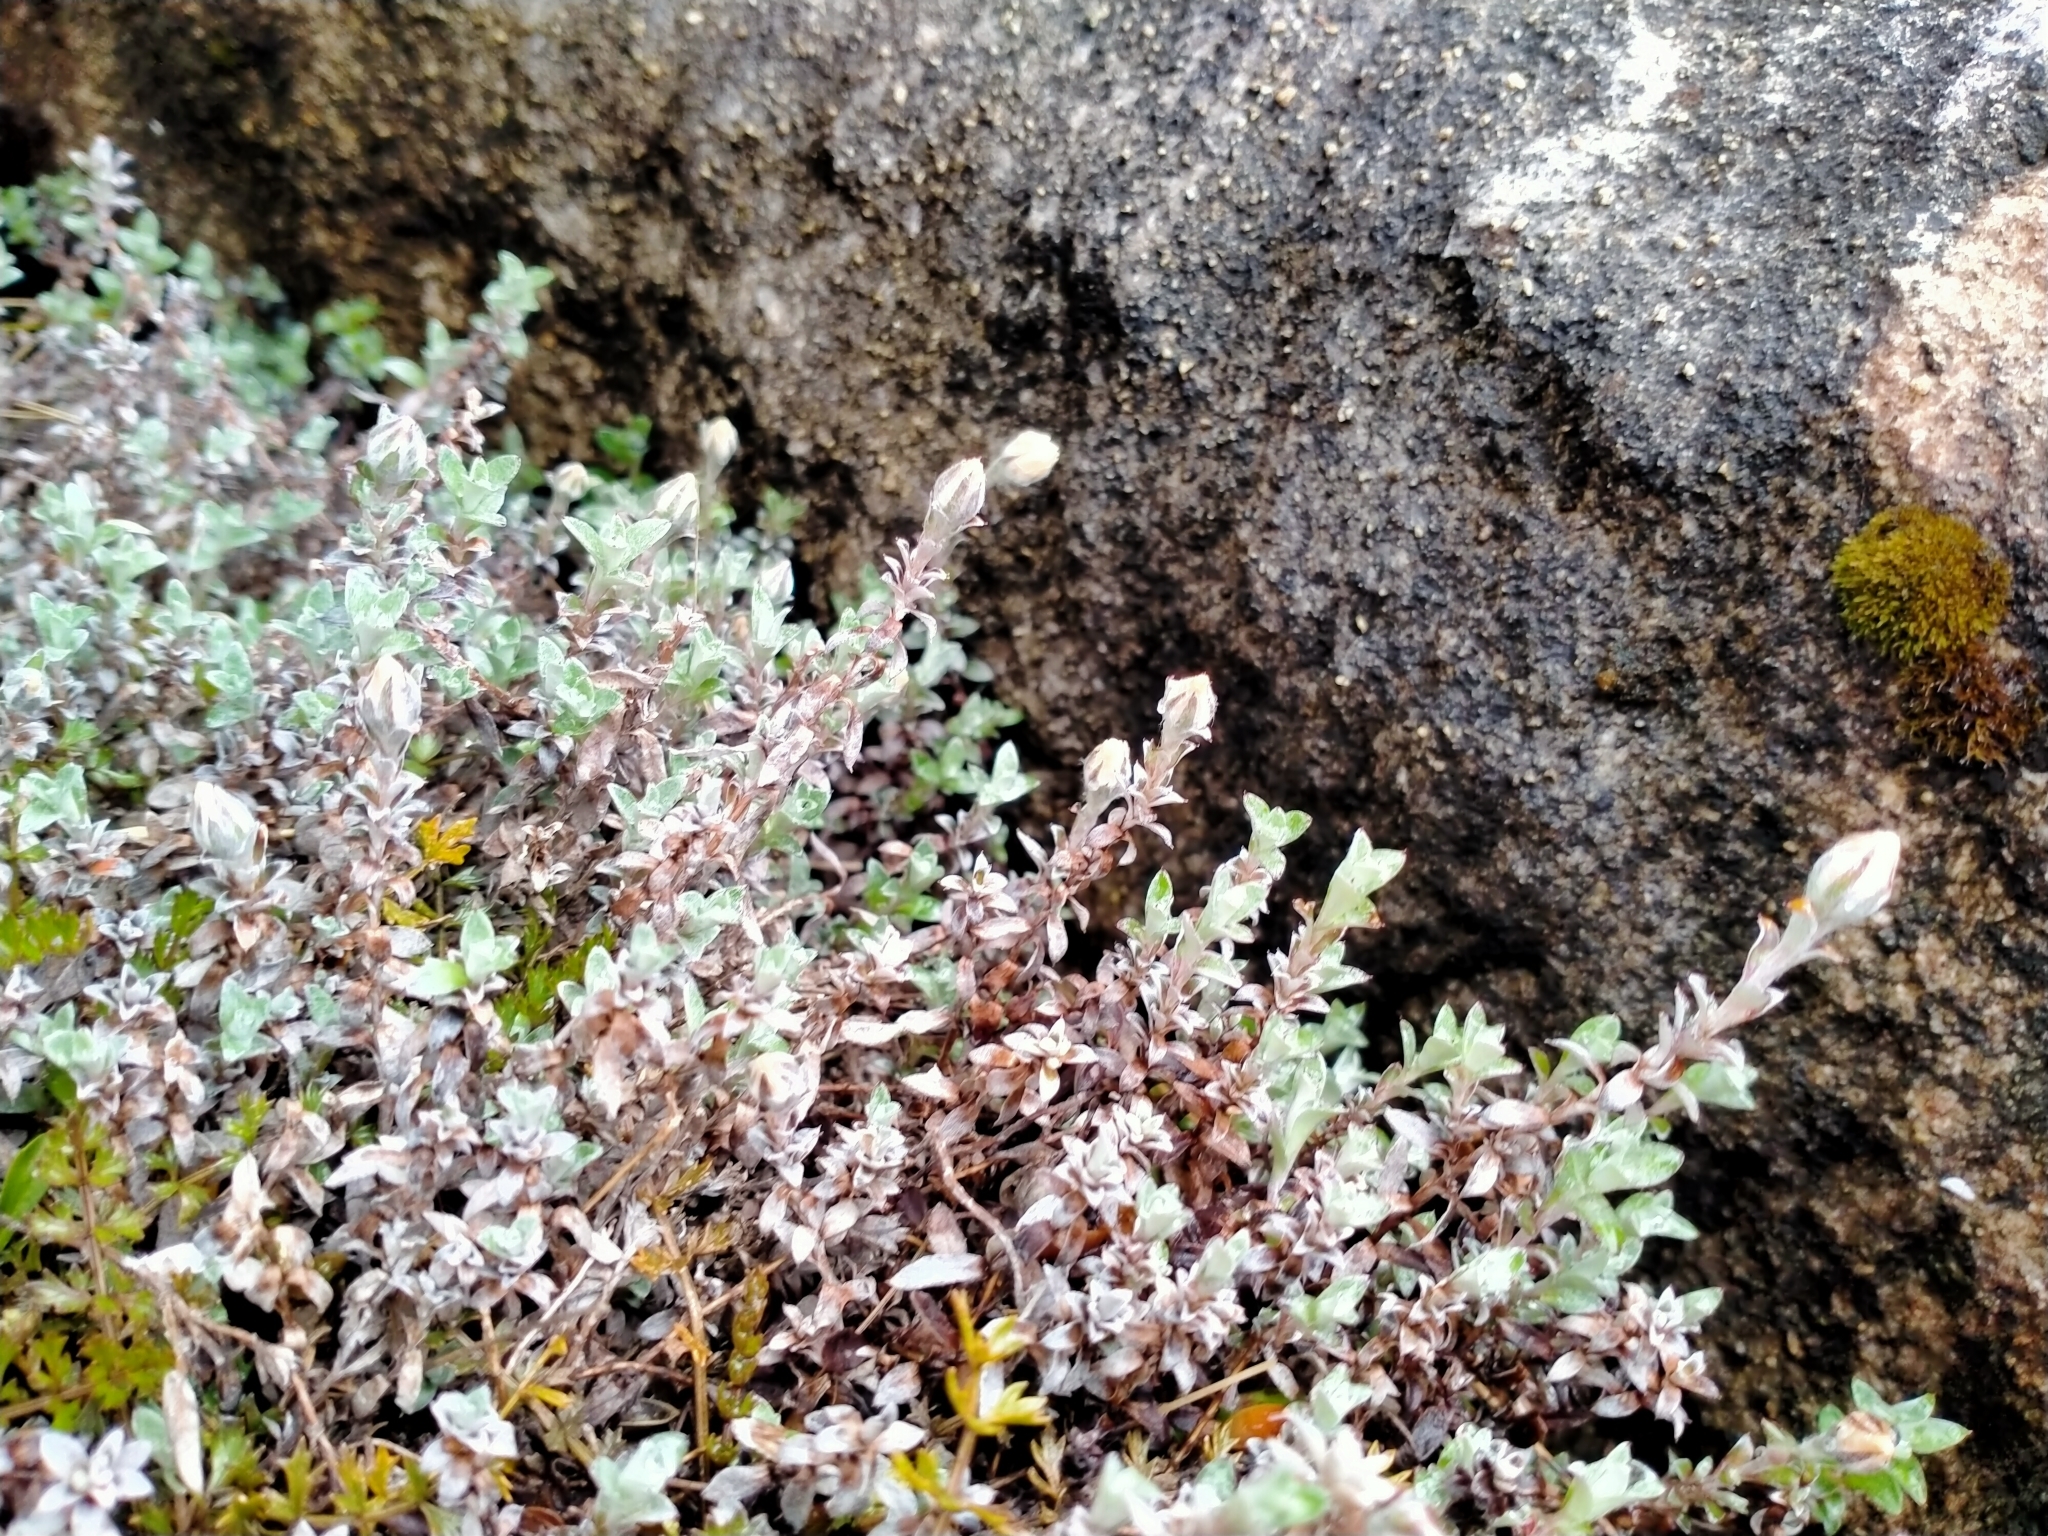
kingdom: Plantae
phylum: Tracheophyta
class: Magnoliopsida
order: Asterales
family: Asteraceae
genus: Anaphalioides
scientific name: Anaphalioides bellidioides
